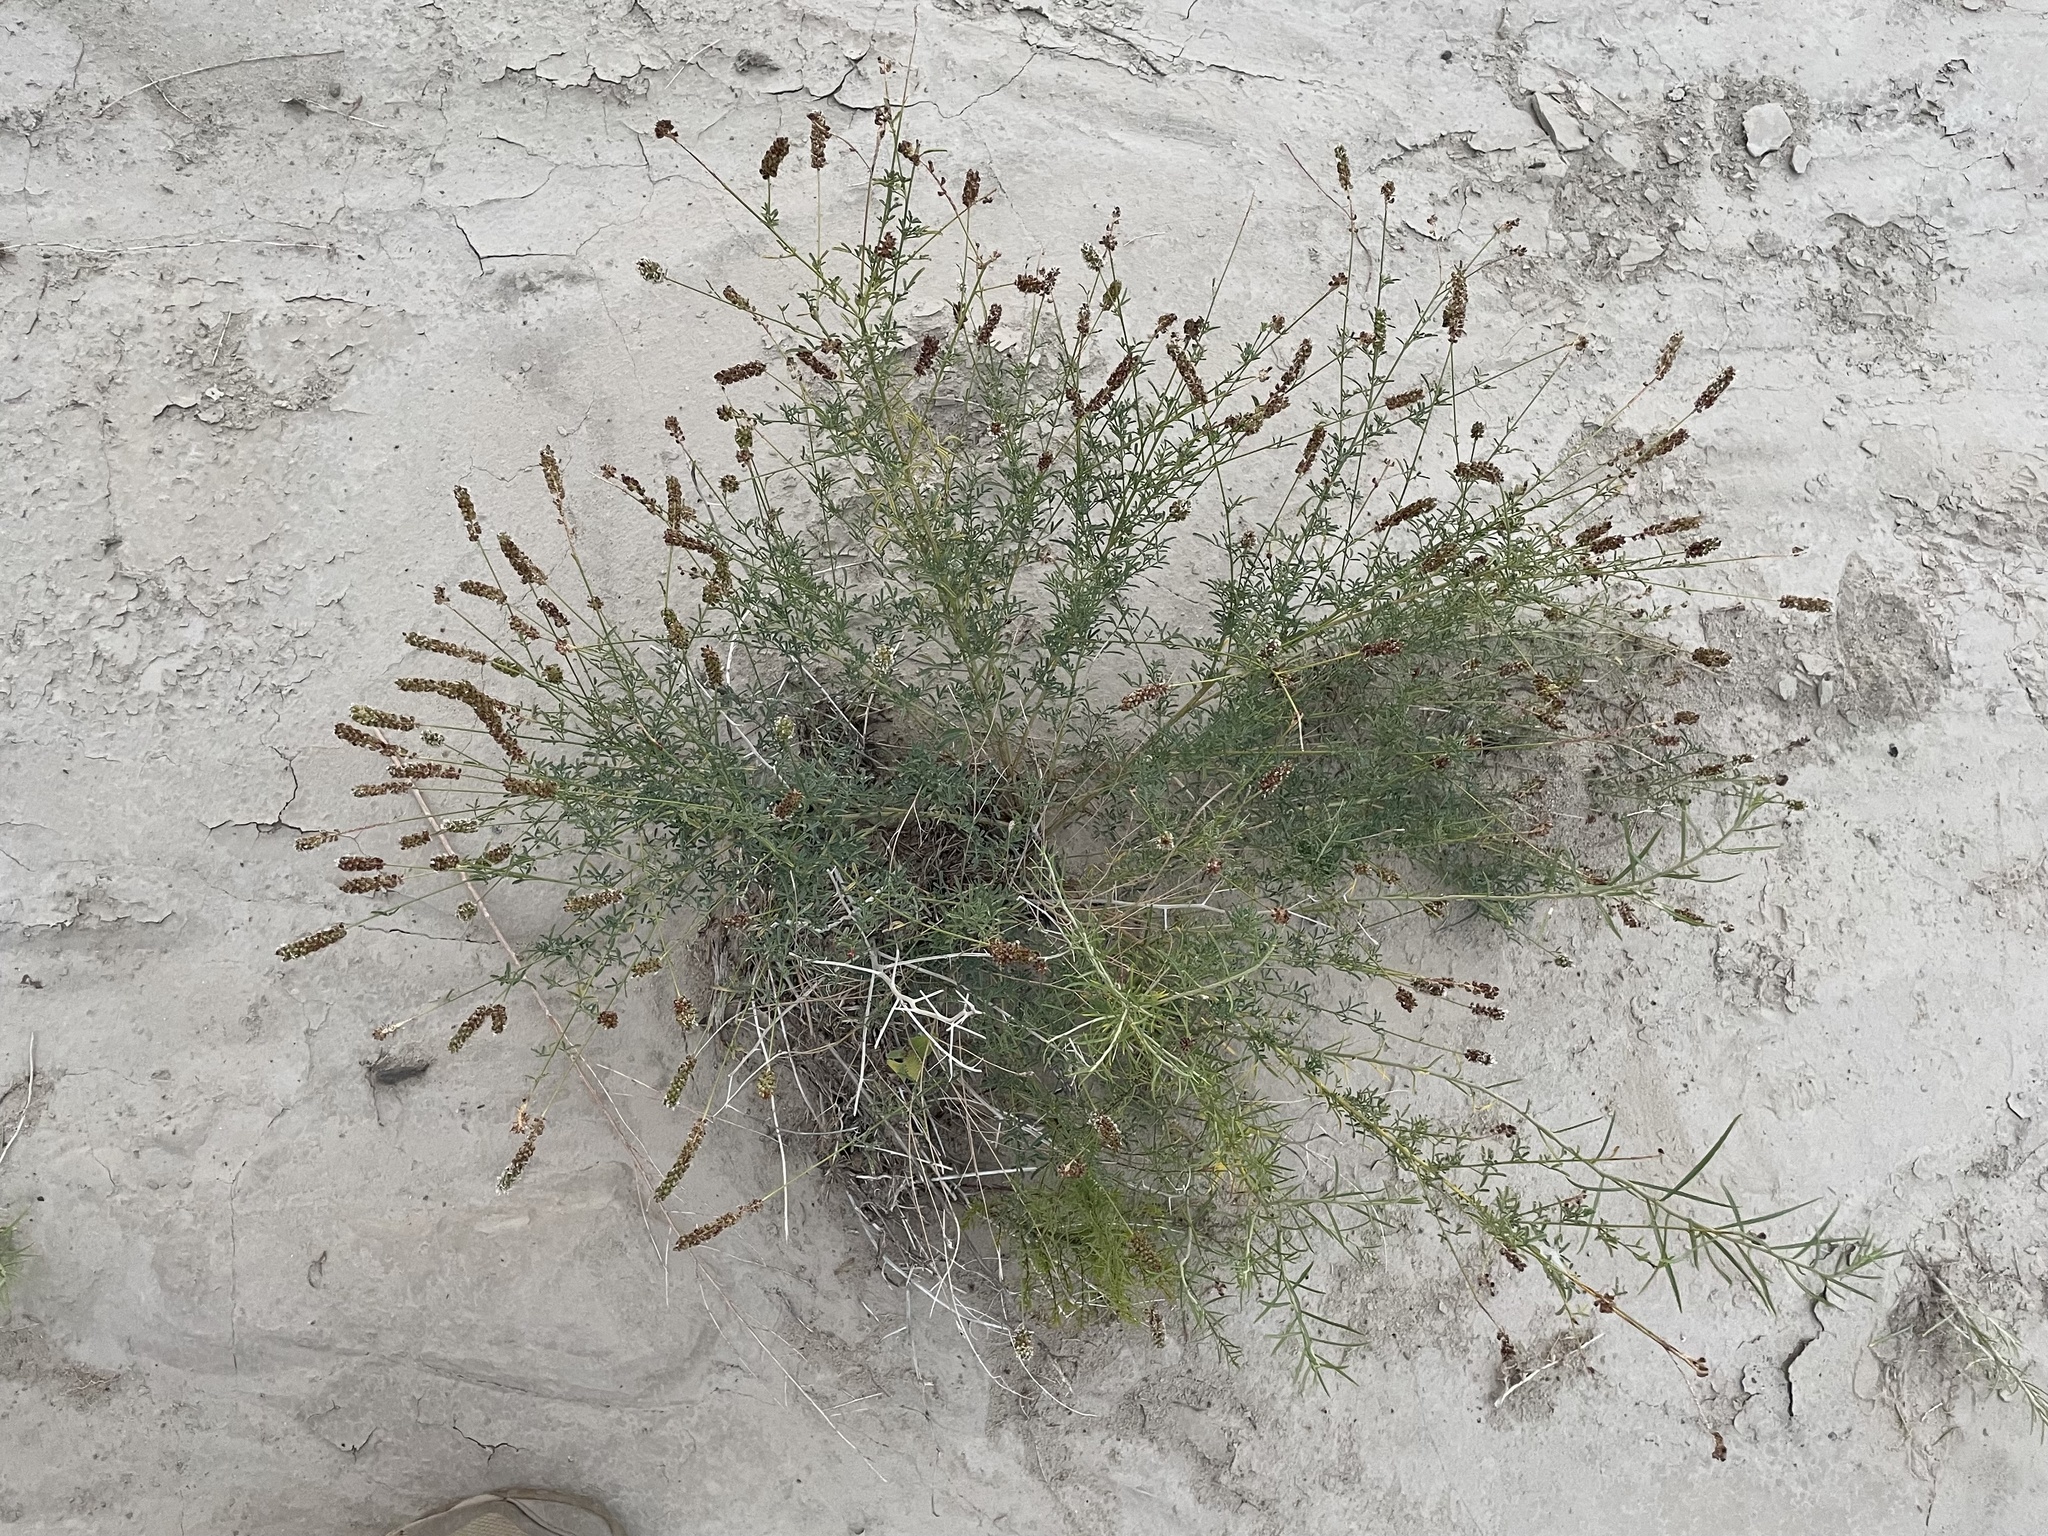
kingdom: Plantae
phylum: Tracheophyta
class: Magnoliopsida
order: Fabales
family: Fabaceae
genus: Dalea
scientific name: Dalea candida
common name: White prairie-clover
